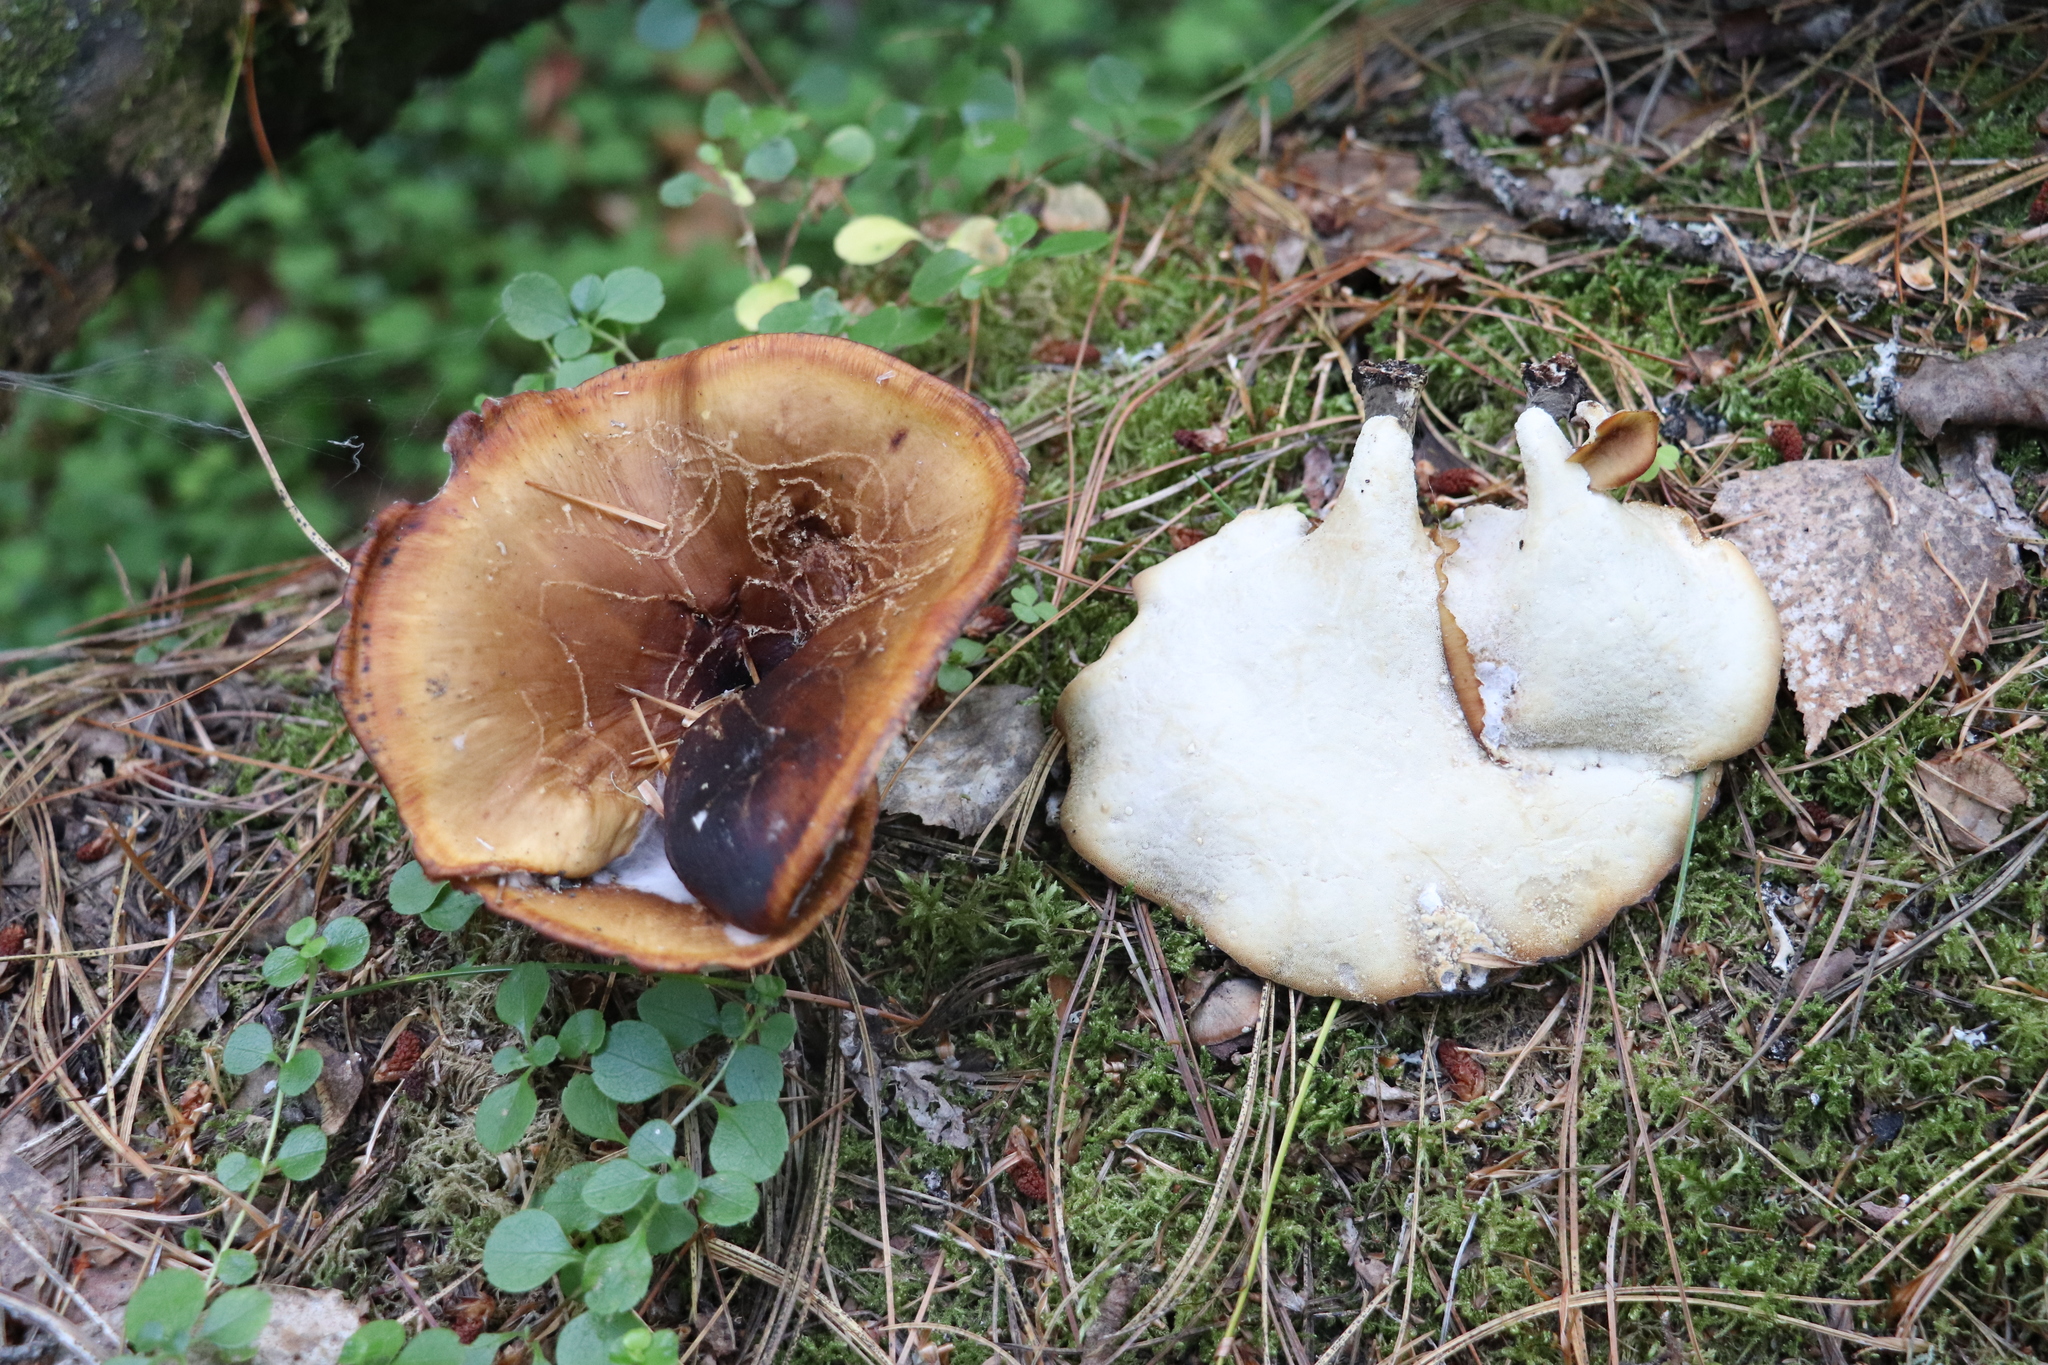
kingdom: Fungi
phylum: Basidiomycota
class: Agaricomycetes
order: Polyporales
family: Polyporaceae
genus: Picipes
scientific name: Picipes badius
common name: Bay polypore
